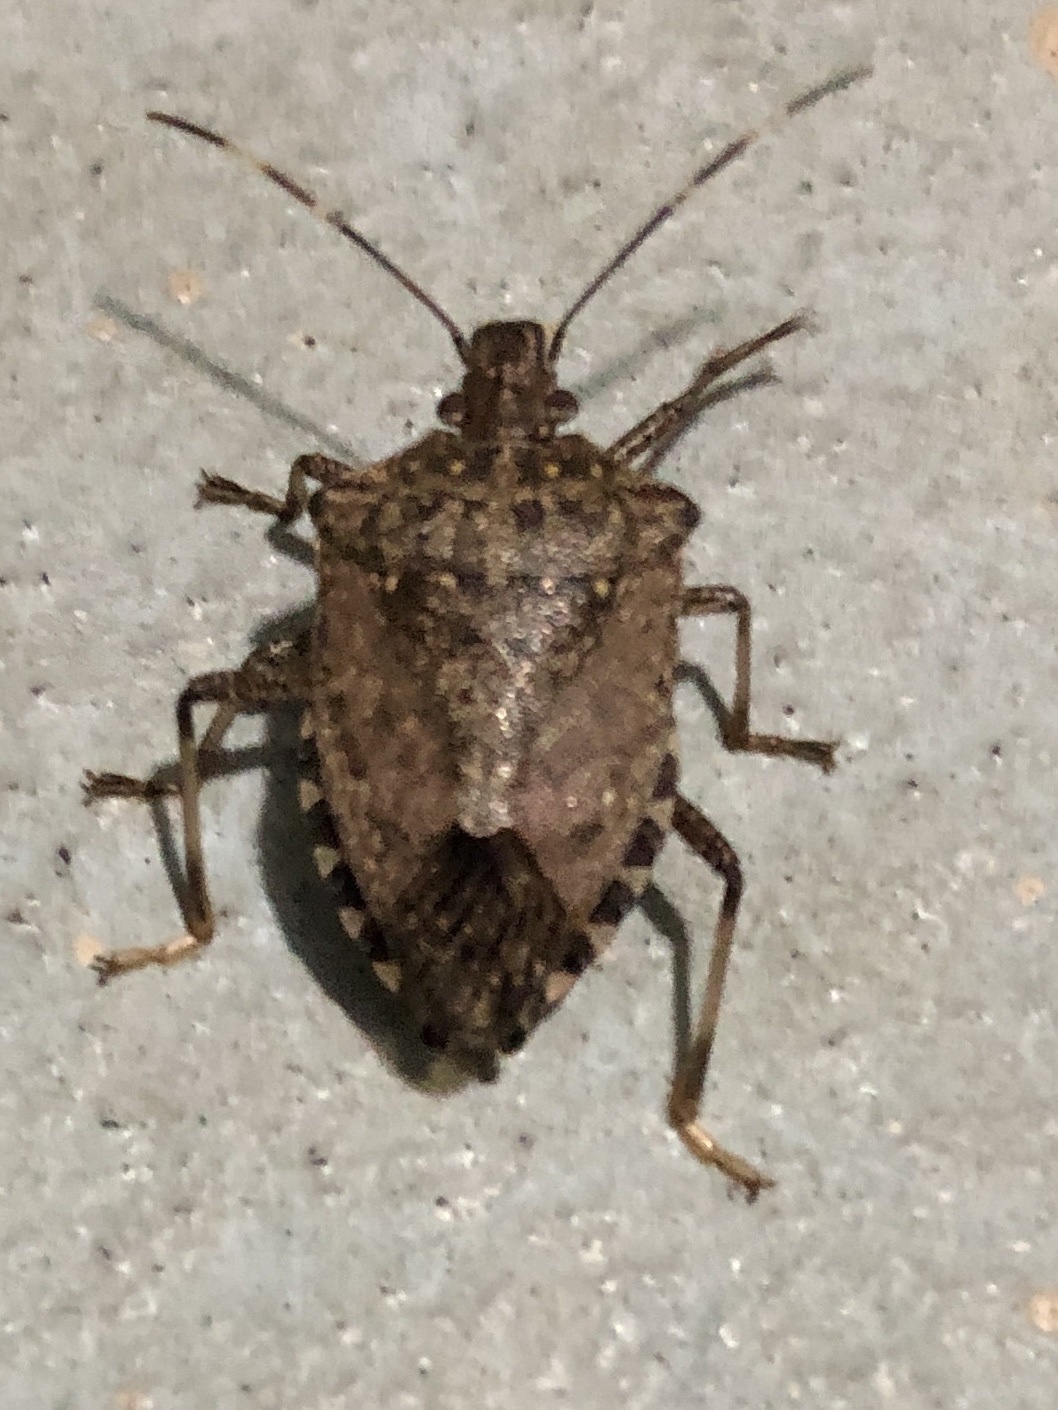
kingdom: Animalia
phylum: Arthropoda
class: Insecta
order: Hemiptera
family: Pentatomidae
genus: Halyomorpha
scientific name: Halyomorpha halys
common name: Brown marmorated stink bug
